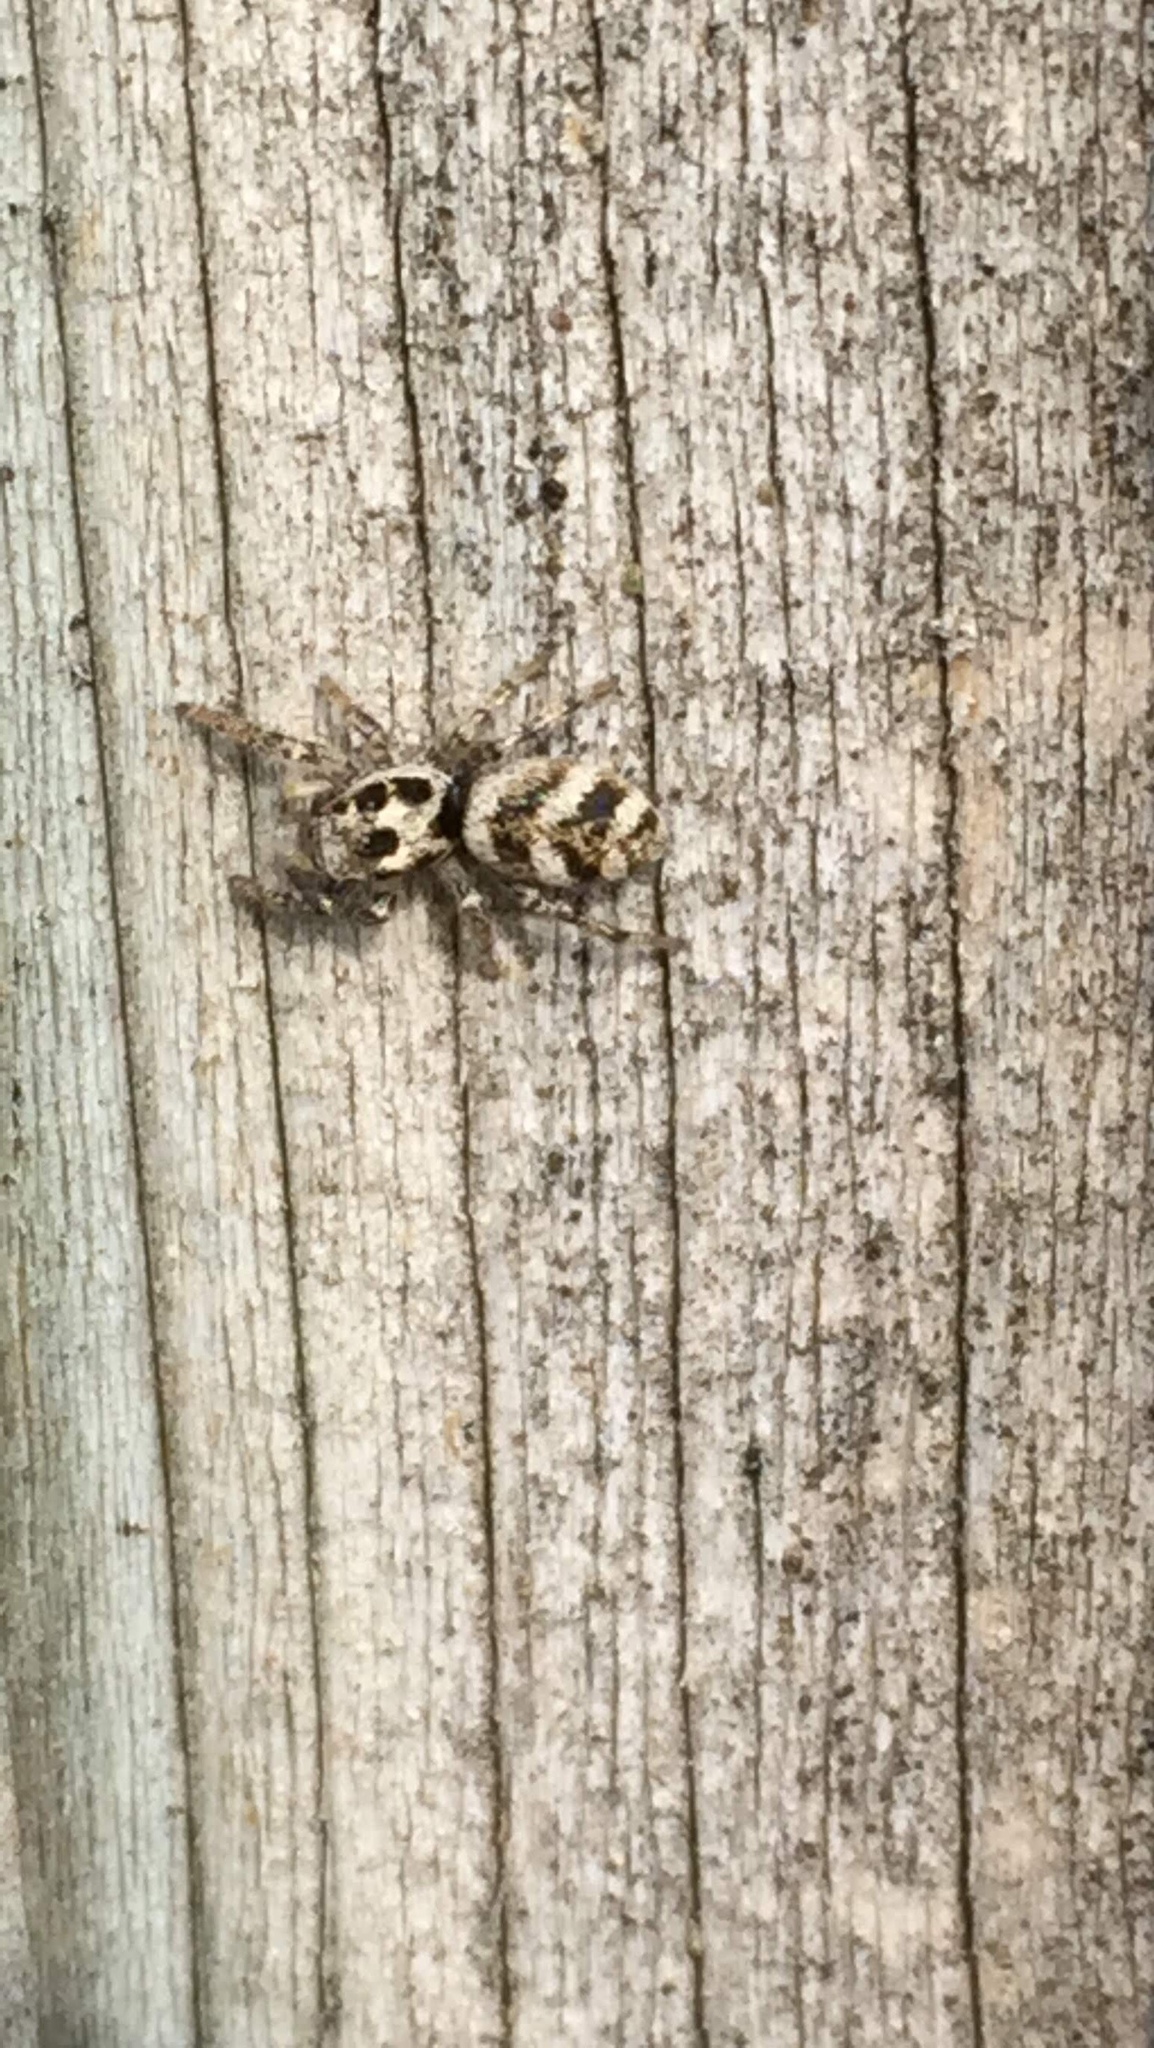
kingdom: Animalia
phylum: Arthropoda
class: Arachnida
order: Araneae
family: Salticidae
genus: Salticus
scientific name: Salticus scenicus
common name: Zebra jumper
